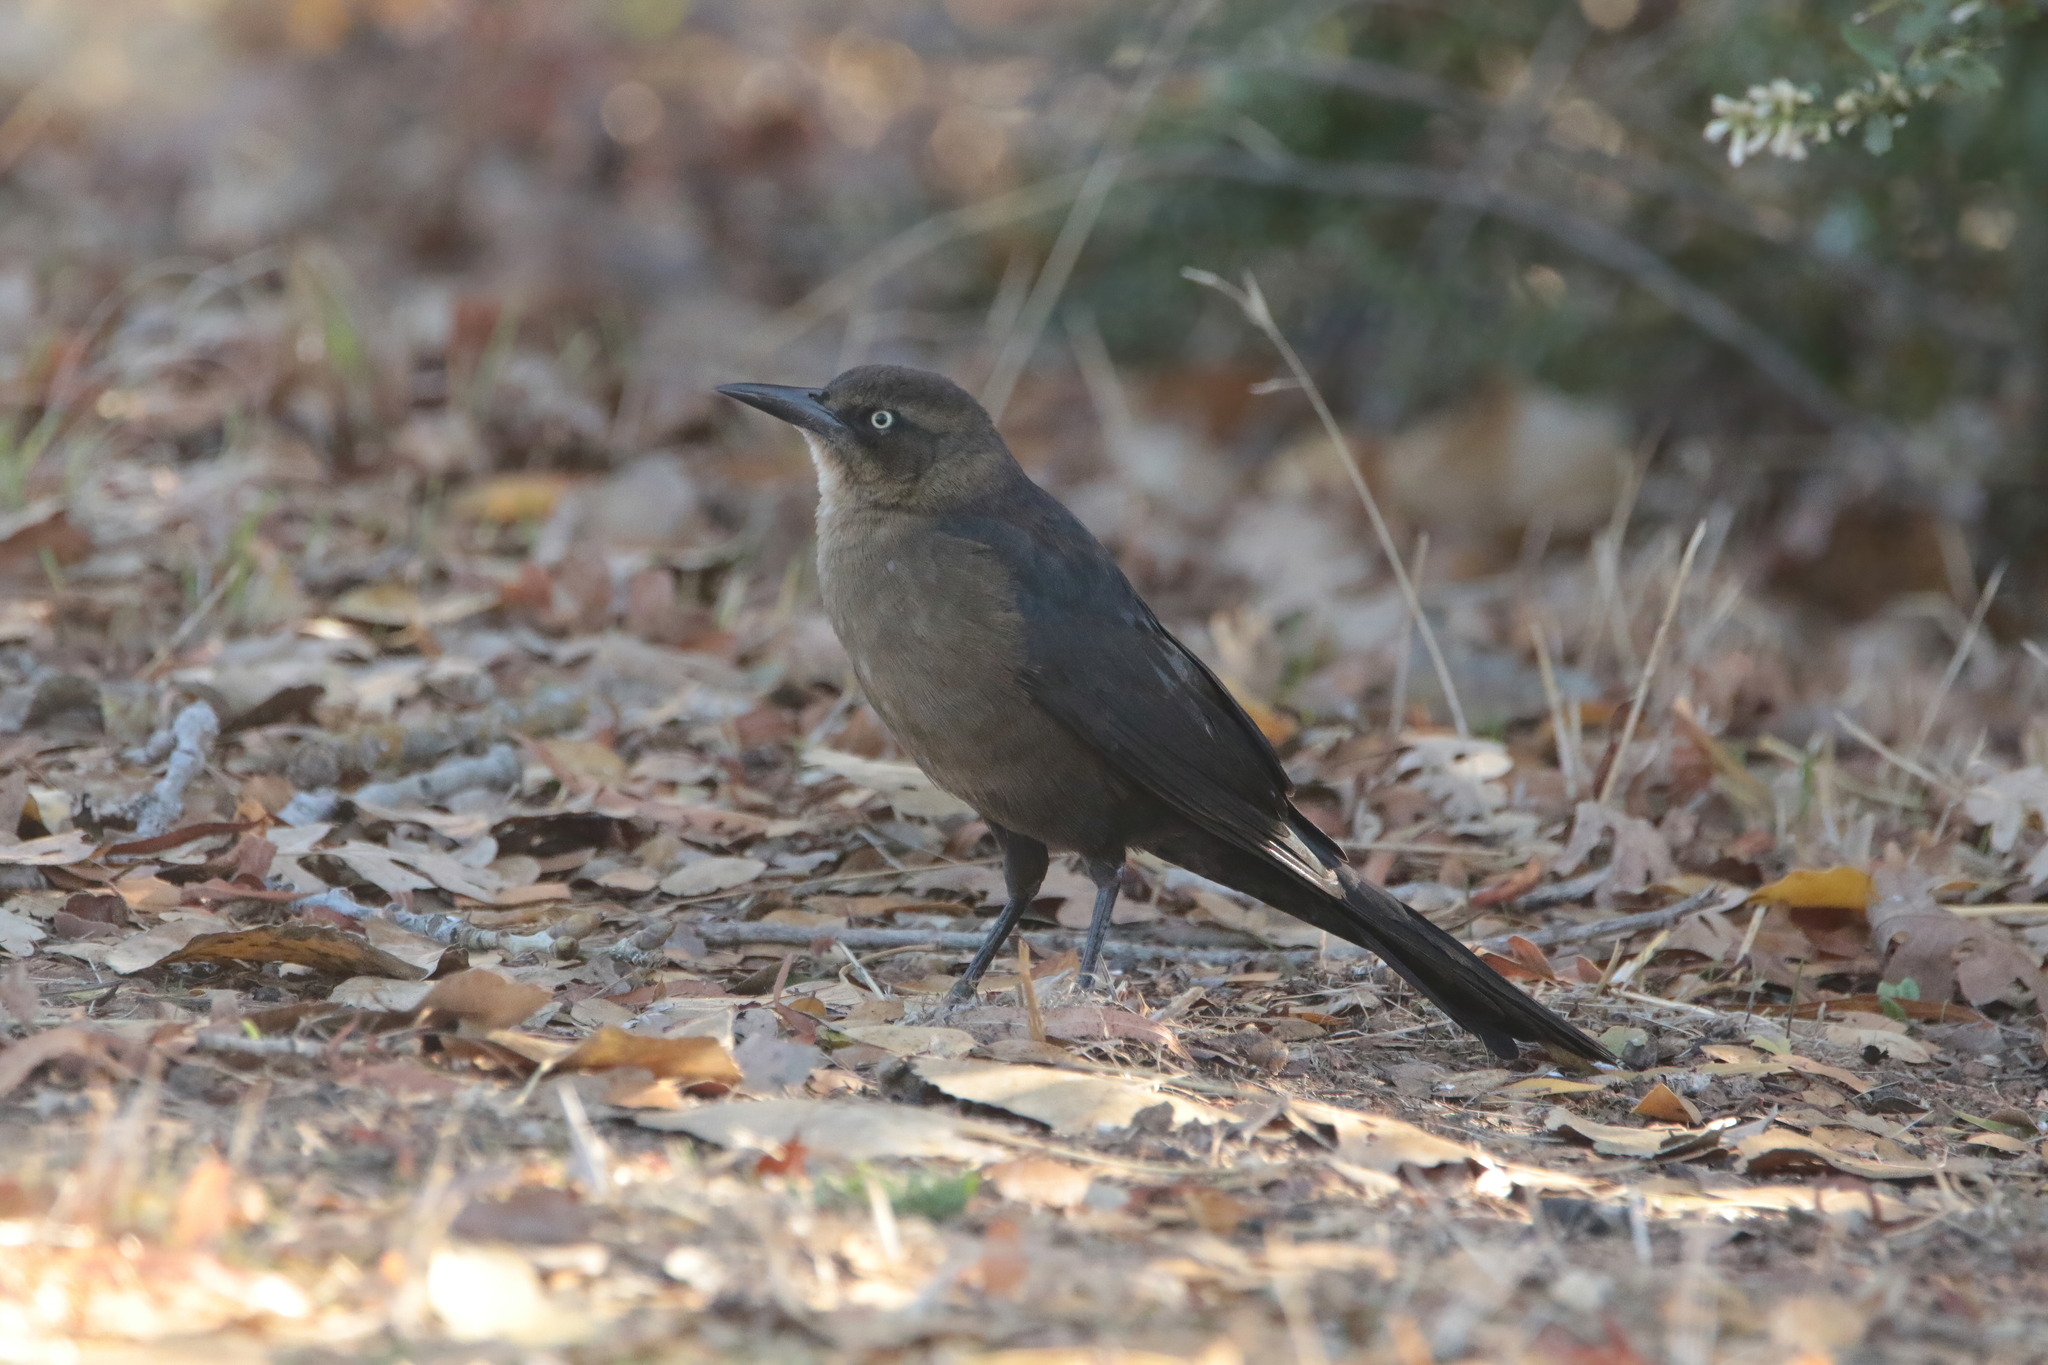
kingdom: Animalia
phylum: Chordata
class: Aves
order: Passeriformes
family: Icteridae
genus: Quiscalus
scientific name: Quiscalus mexicanus
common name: Great-tailed grackle
